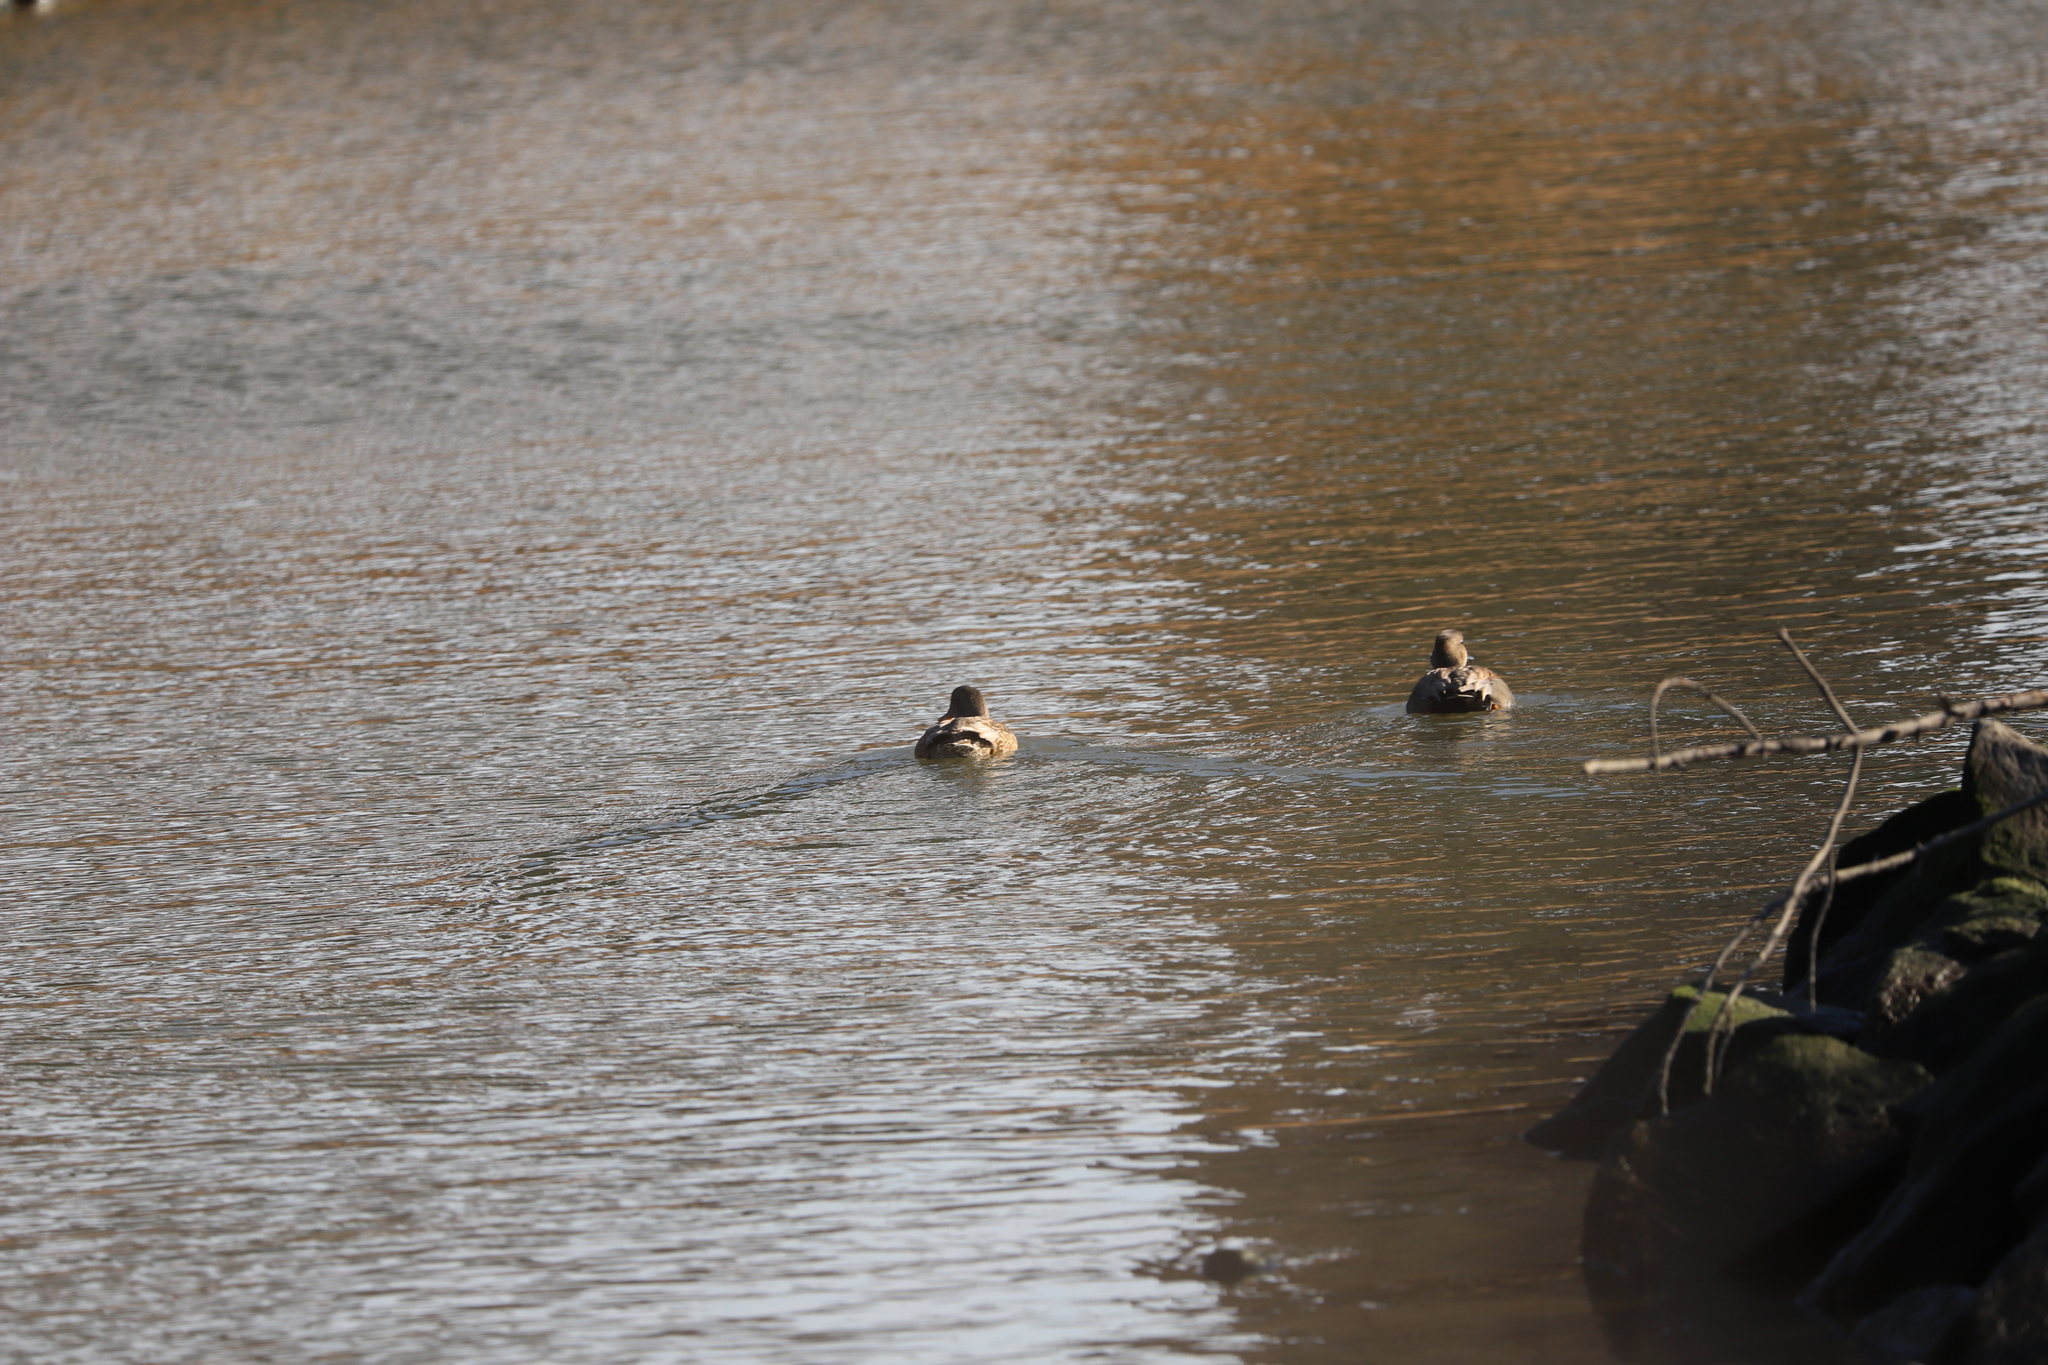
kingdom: Animalia
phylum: Chordata
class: Aves
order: Anseriformes
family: Anatidae
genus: Mareca
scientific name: Mareca strepera
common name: Gadwall
